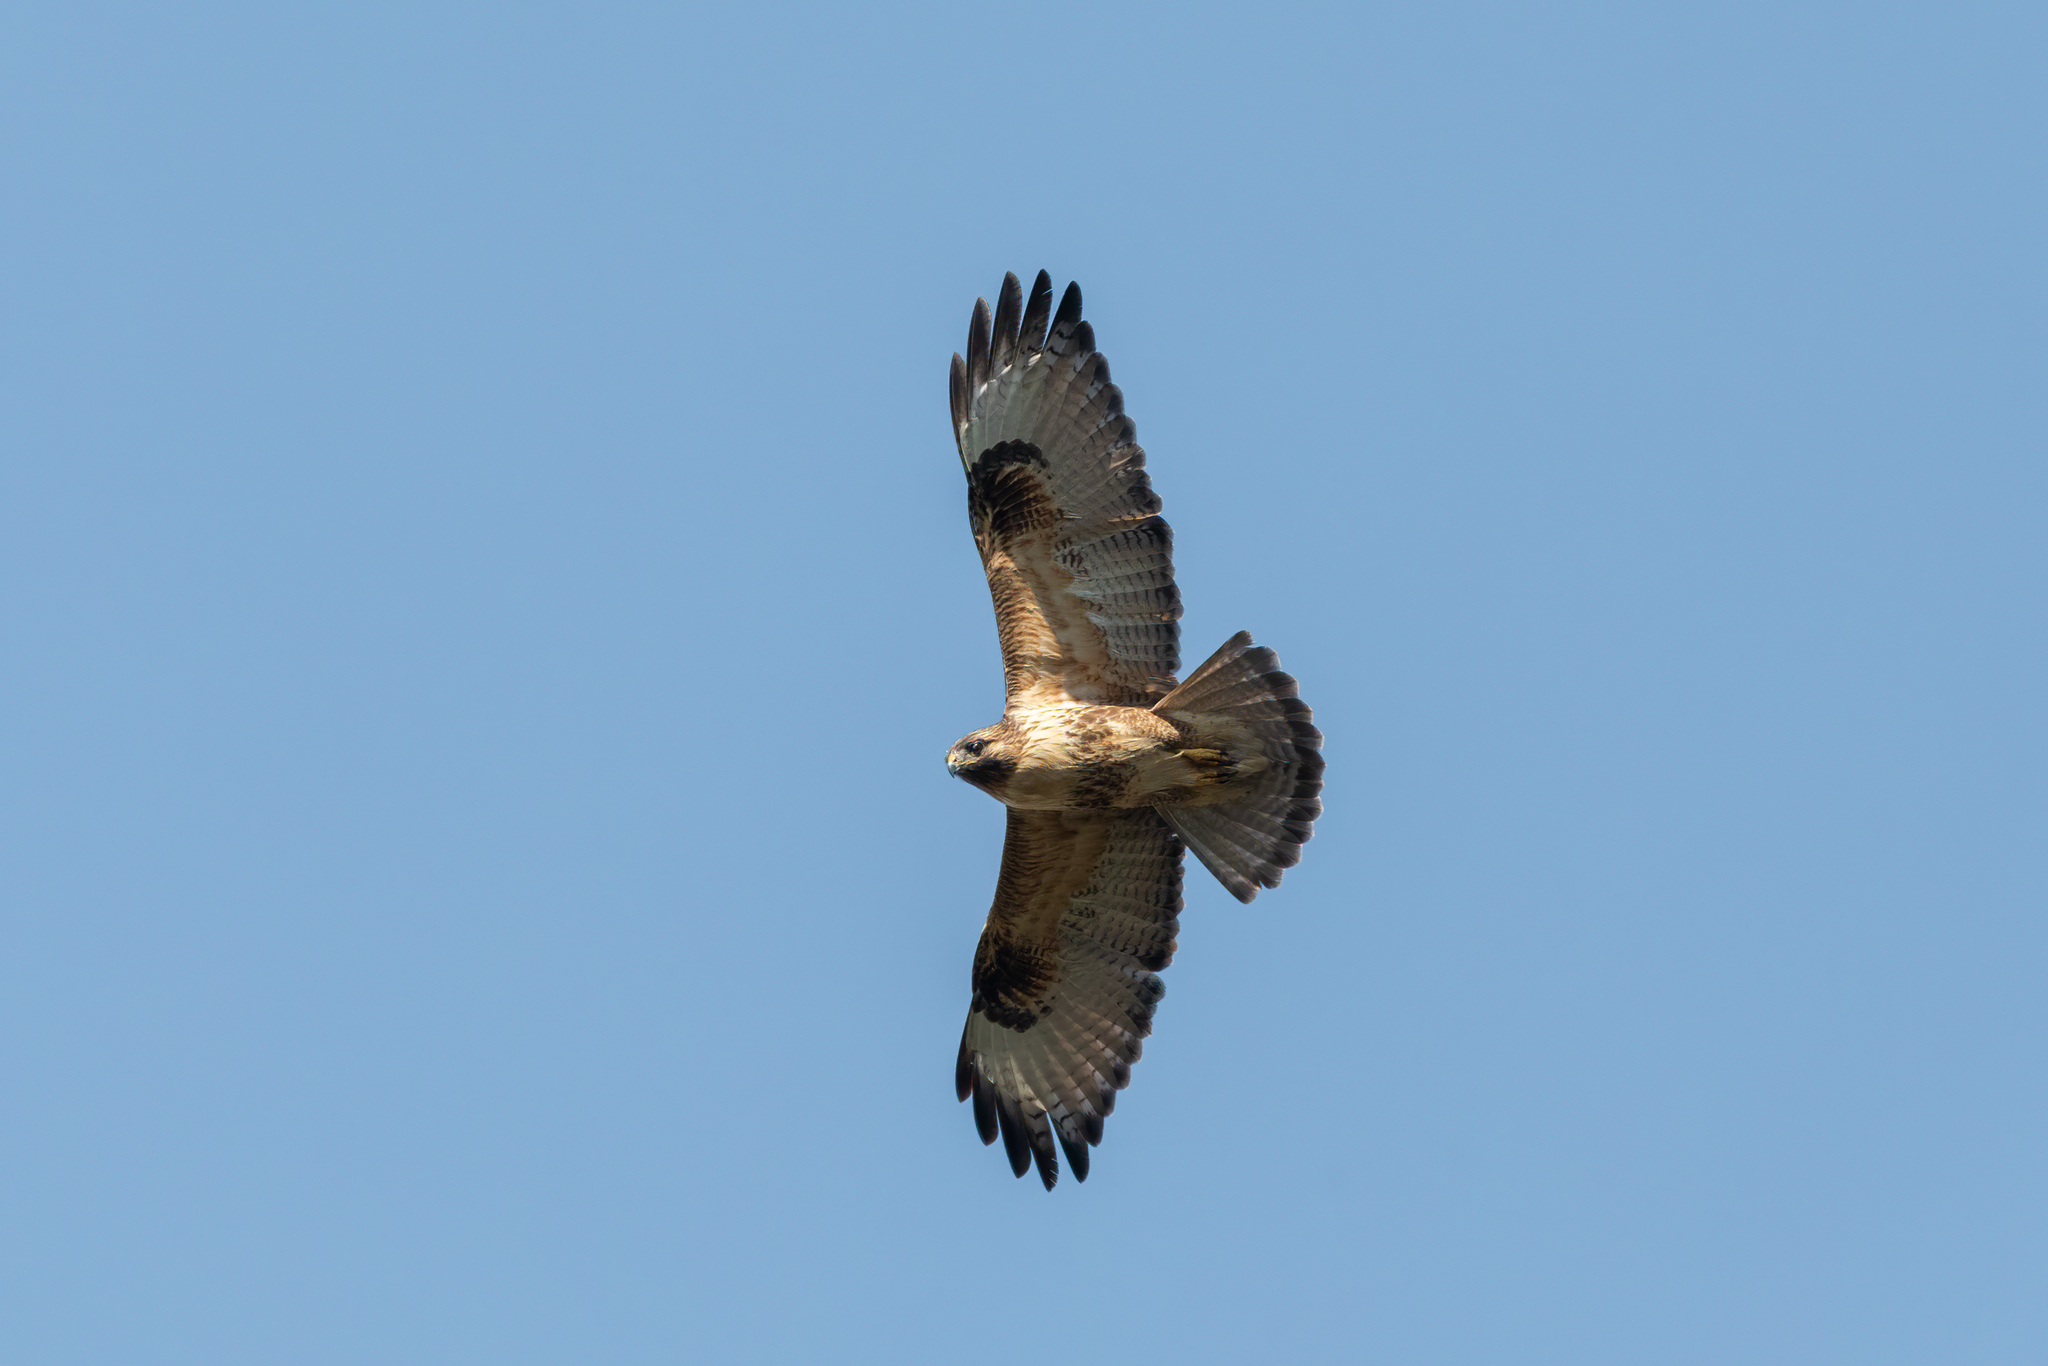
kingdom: Animalia
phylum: Chordata
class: Aves
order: Accipitriformes
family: Accipitridae
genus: Buteo
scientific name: Buteo japonicus
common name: Eastern buzzard
